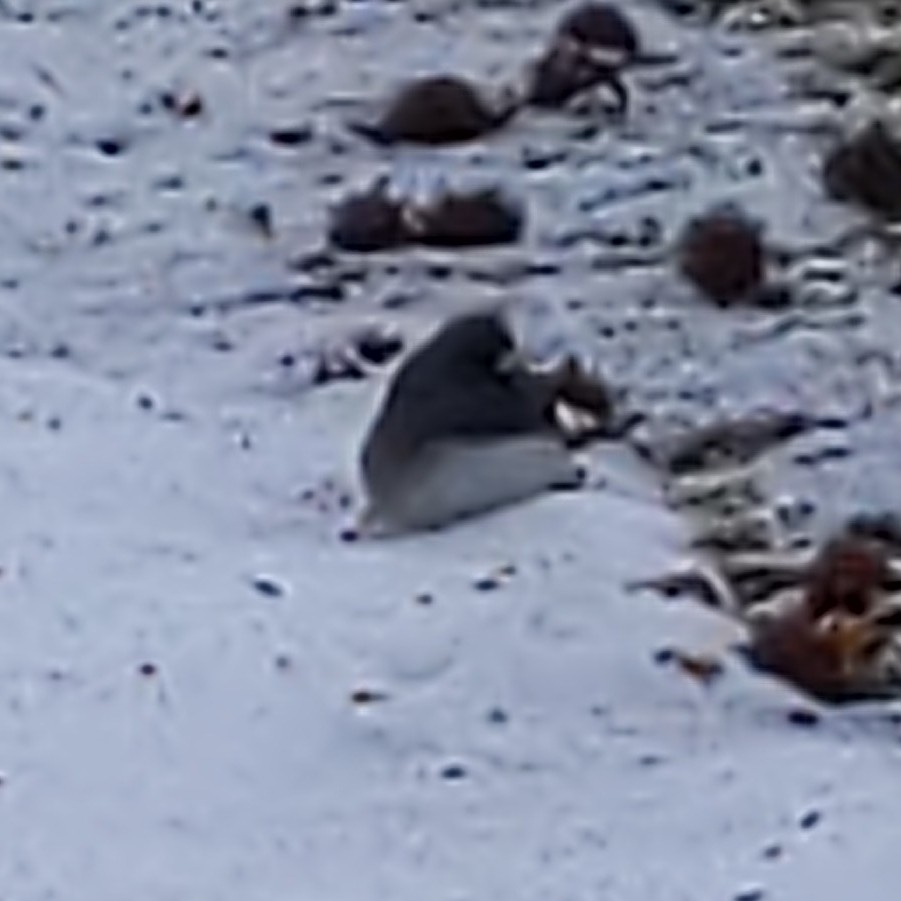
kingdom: Animalia
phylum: Chordata
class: Aves
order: Passeriformes
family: Passerellidae
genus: Junco
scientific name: Junco hyemalis
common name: Dark-eyed junco
